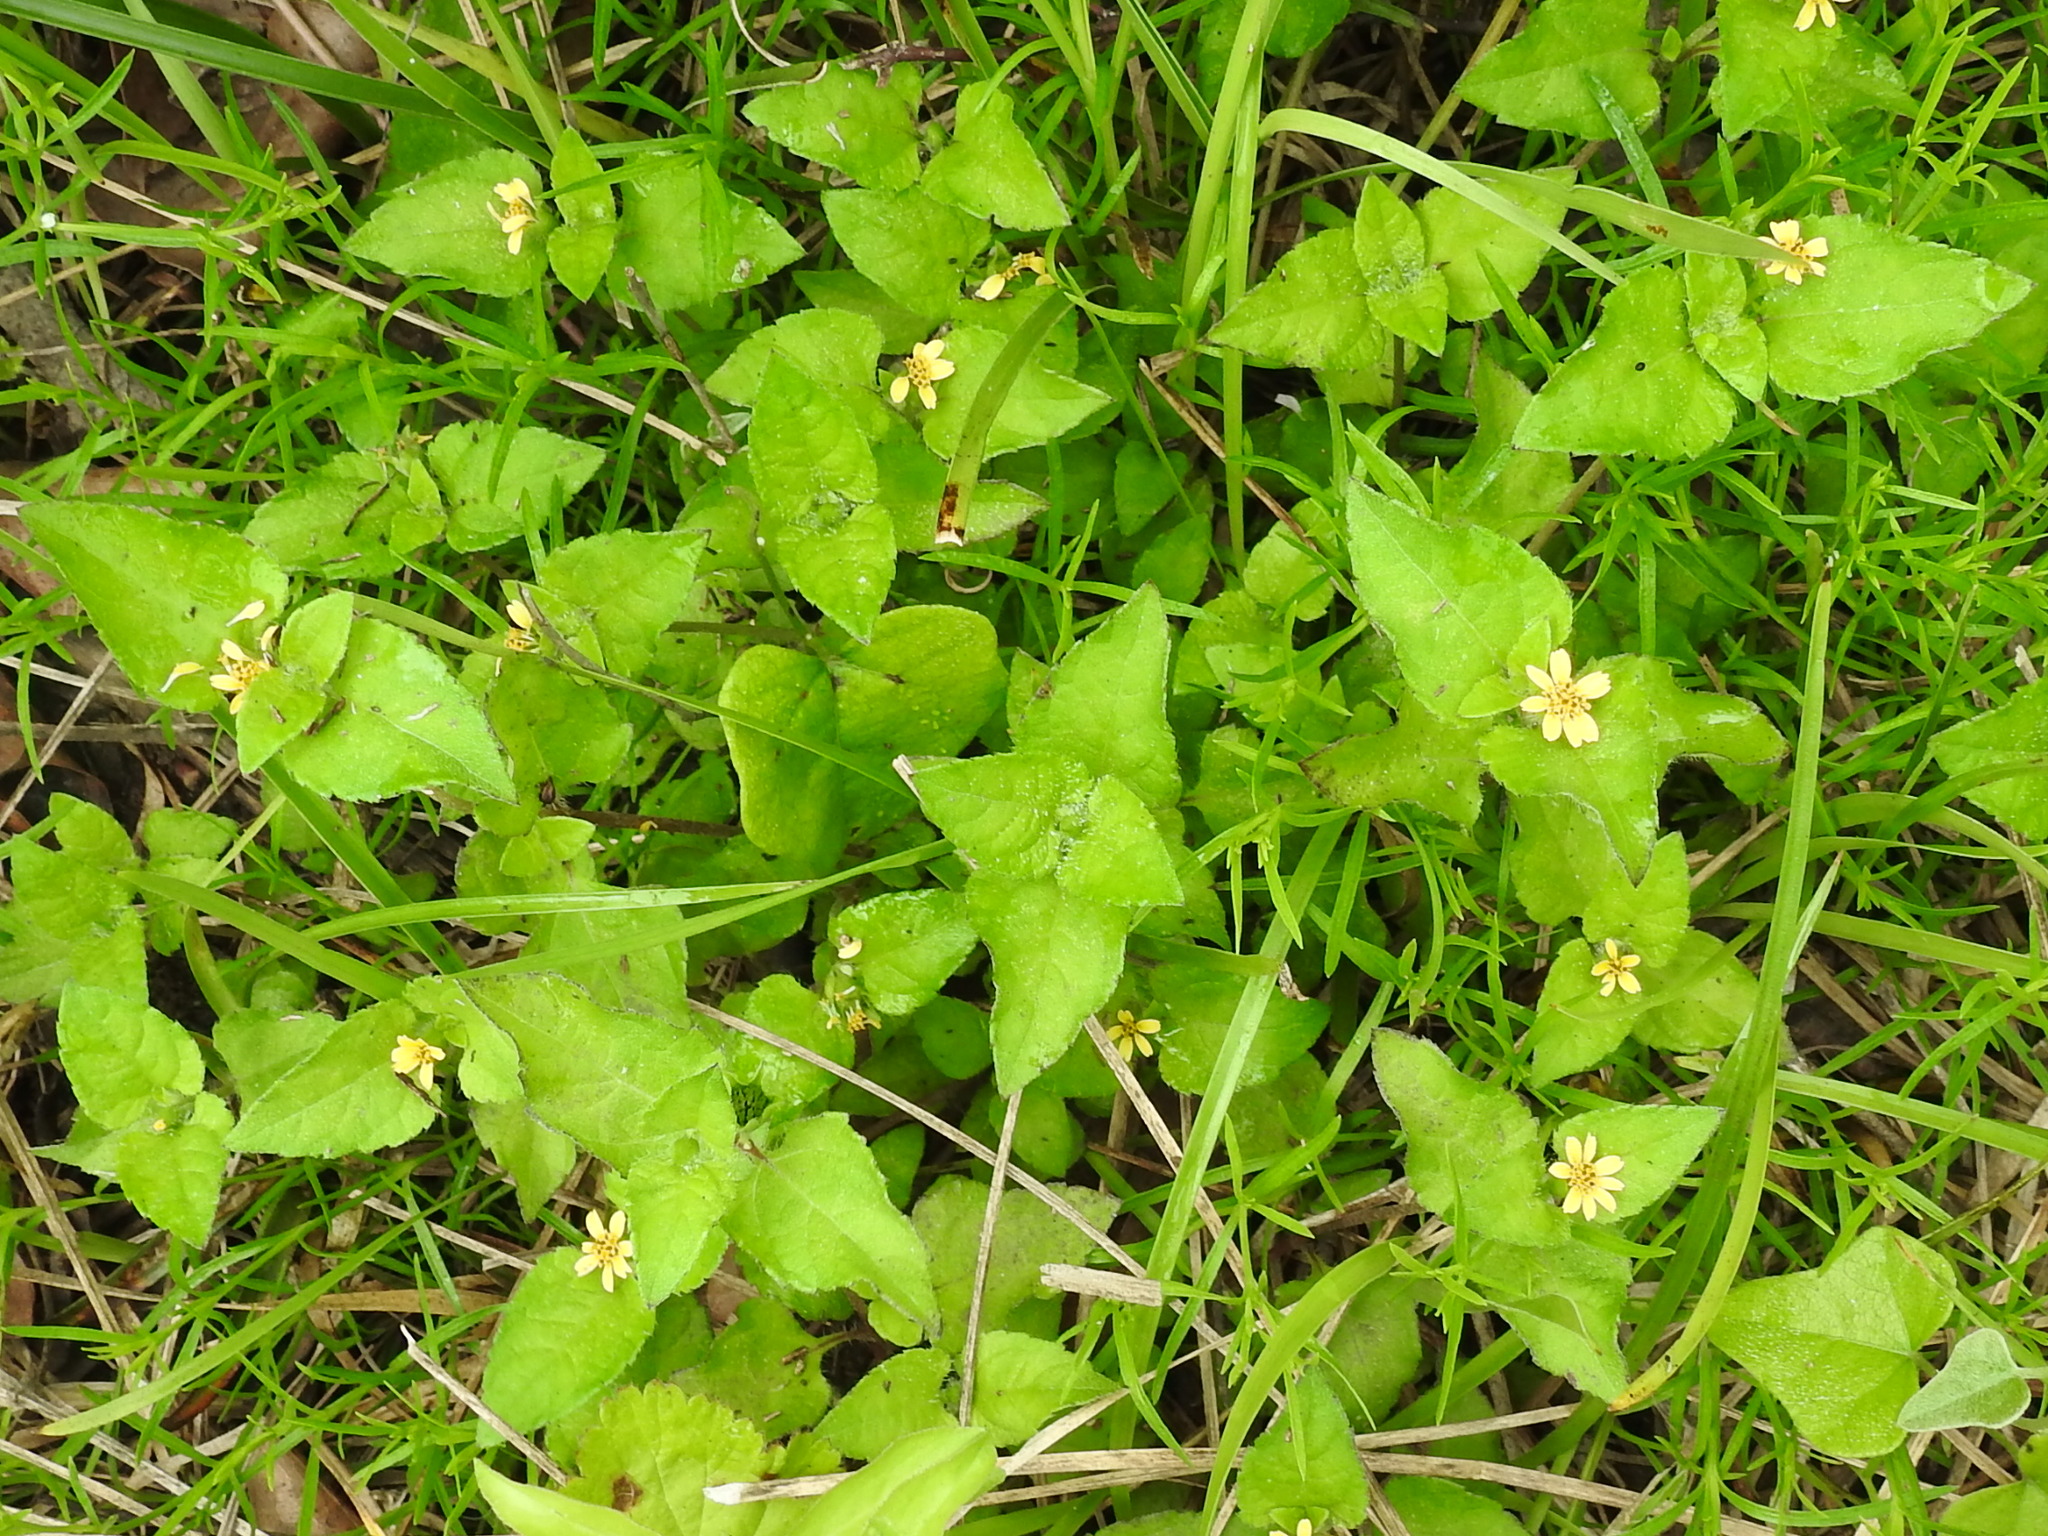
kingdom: Plantae
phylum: Tracheophyta
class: Magnoliopsida
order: Asterales
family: Asteraceae
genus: Calyptocarpus
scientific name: Calyptocarpus vialis
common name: Straggler daisy
